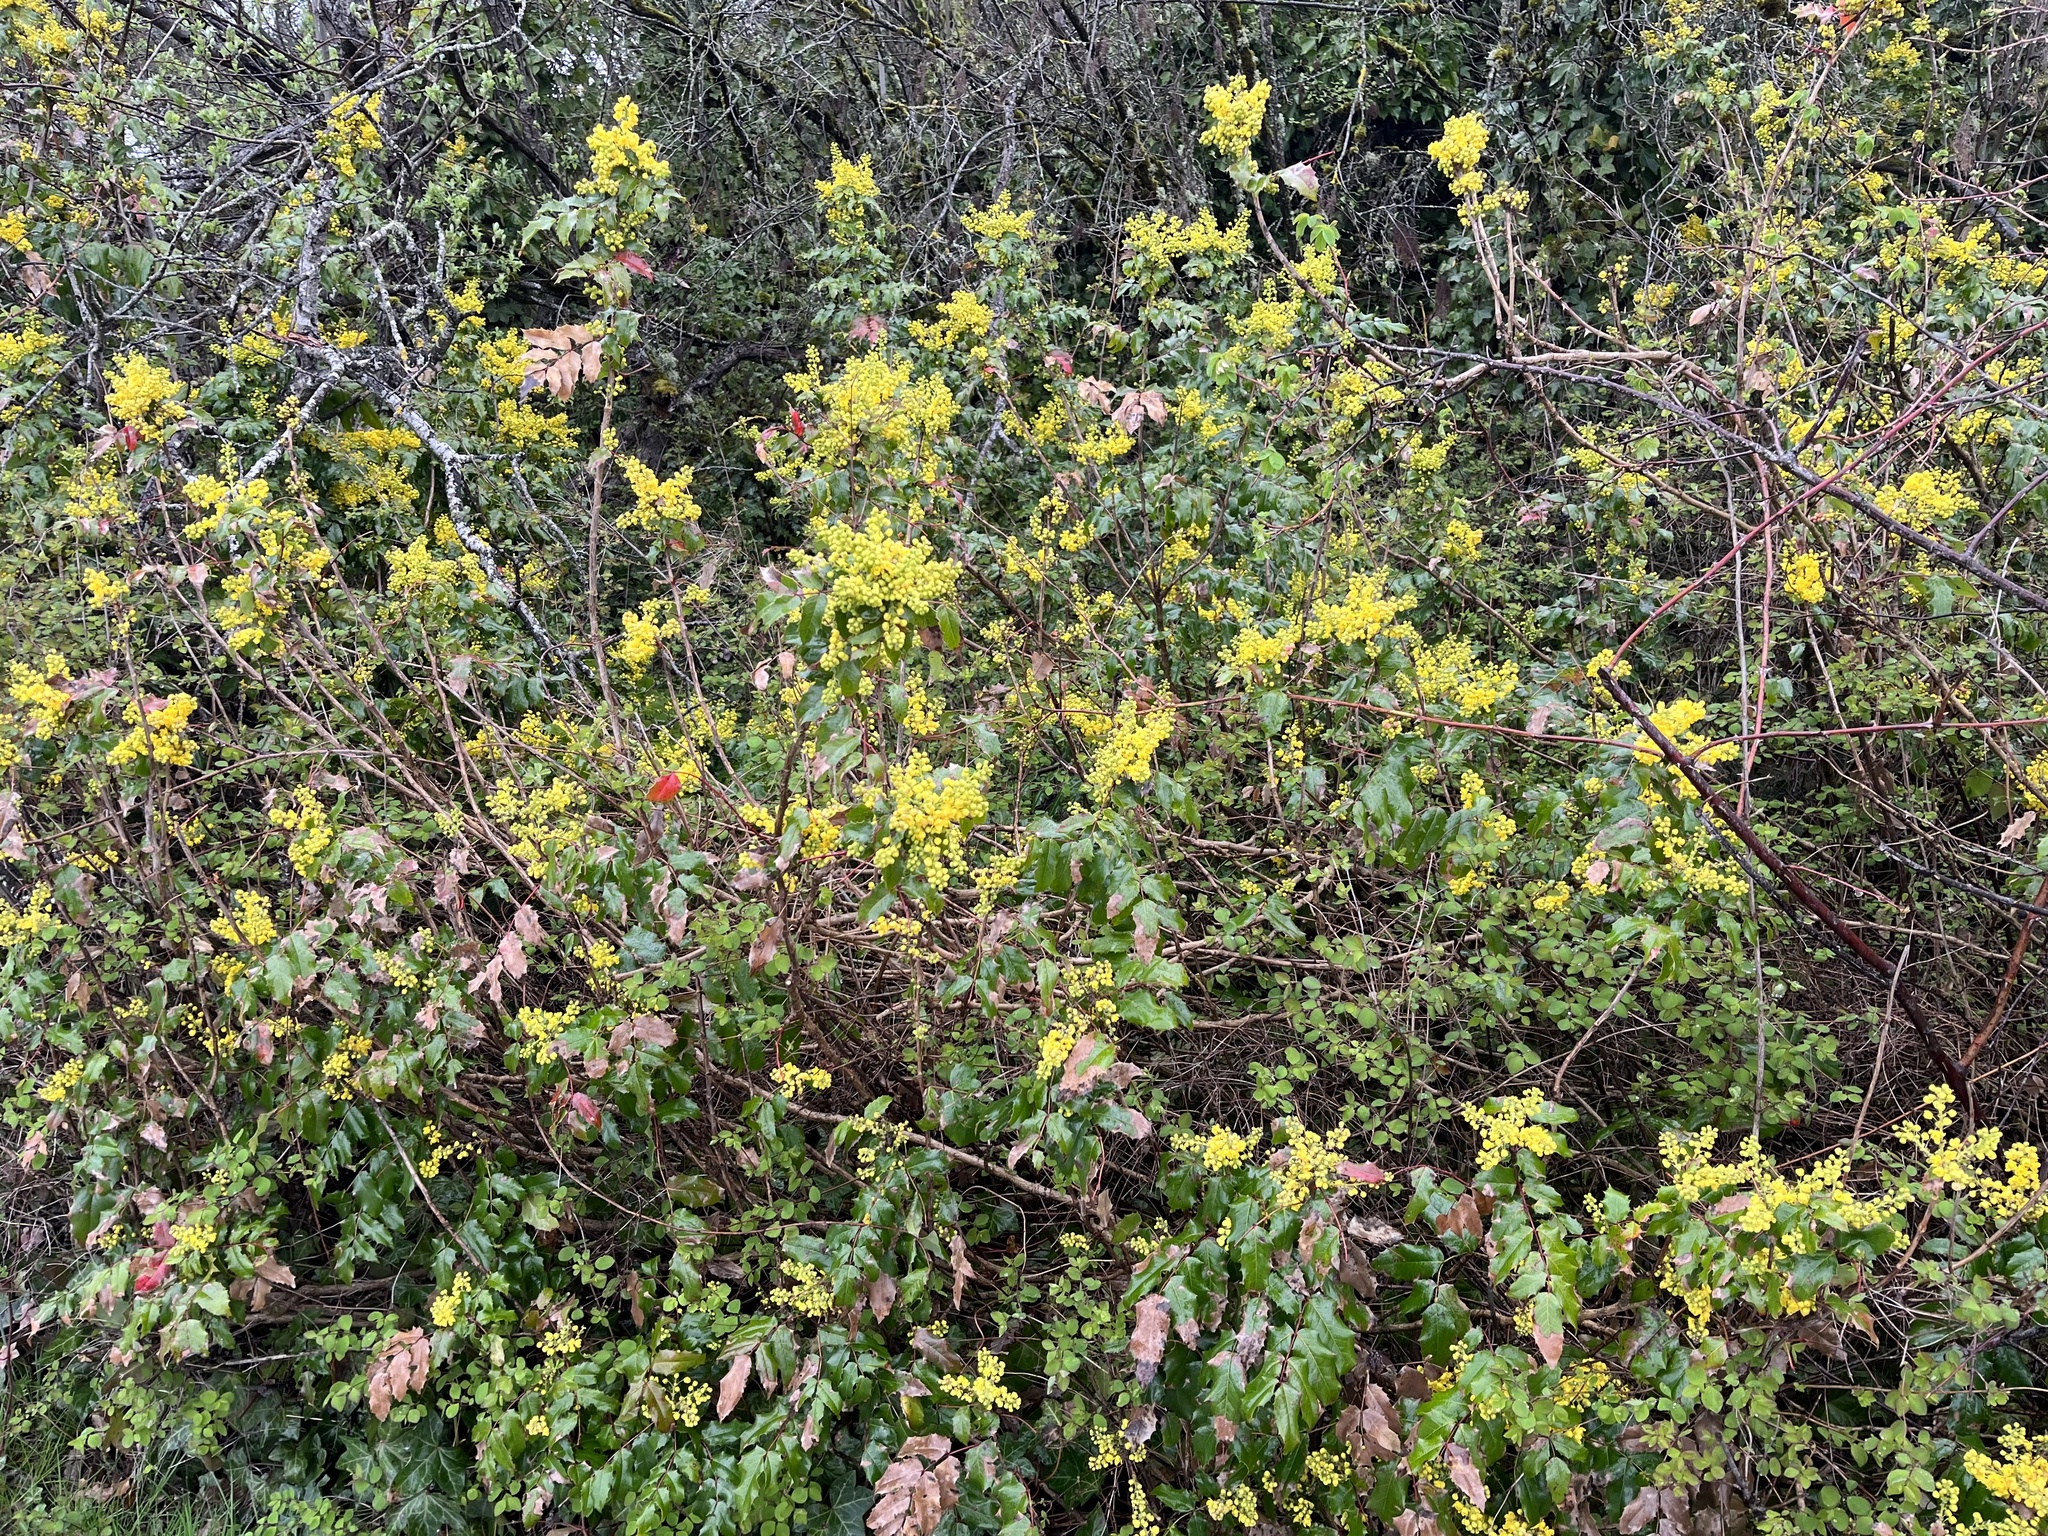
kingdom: Plantae
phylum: Tracheophyta
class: Magnoliopsida
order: Ranunculales
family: Berberidaceae
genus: Mahonia
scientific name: Mahonia aquifolium
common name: Oregon-grape
